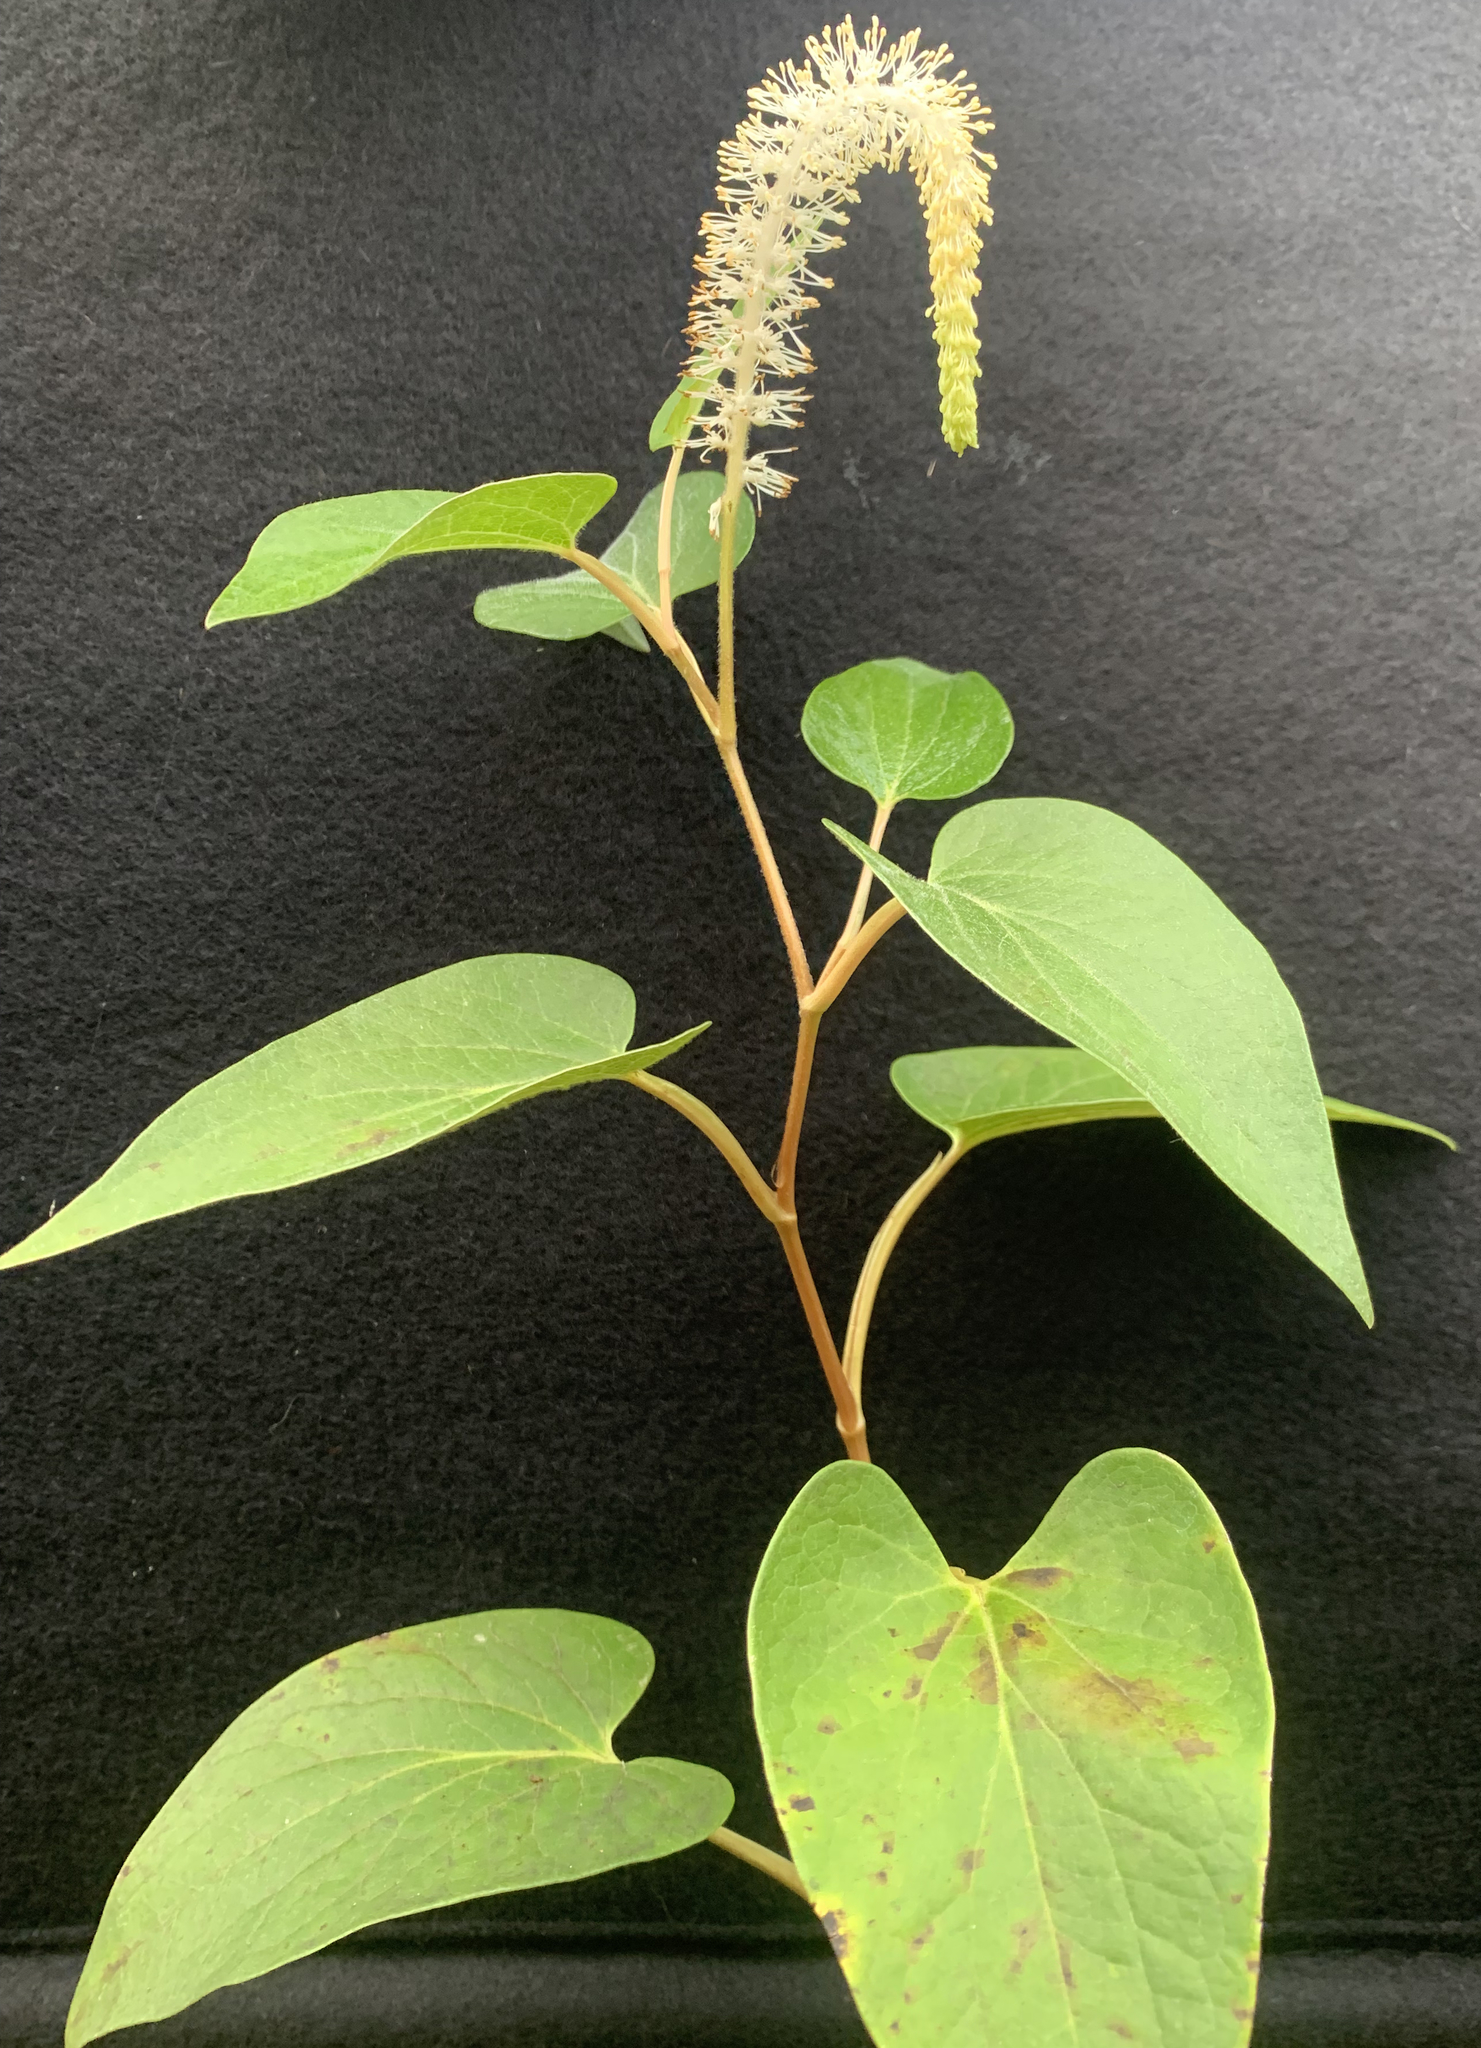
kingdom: Plantae
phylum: Tracheophyta
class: Magnoliopsida
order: Piperales
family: Saururaceae
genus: Saururus
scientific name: Saururus cernuus
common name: Lizard's-tail
